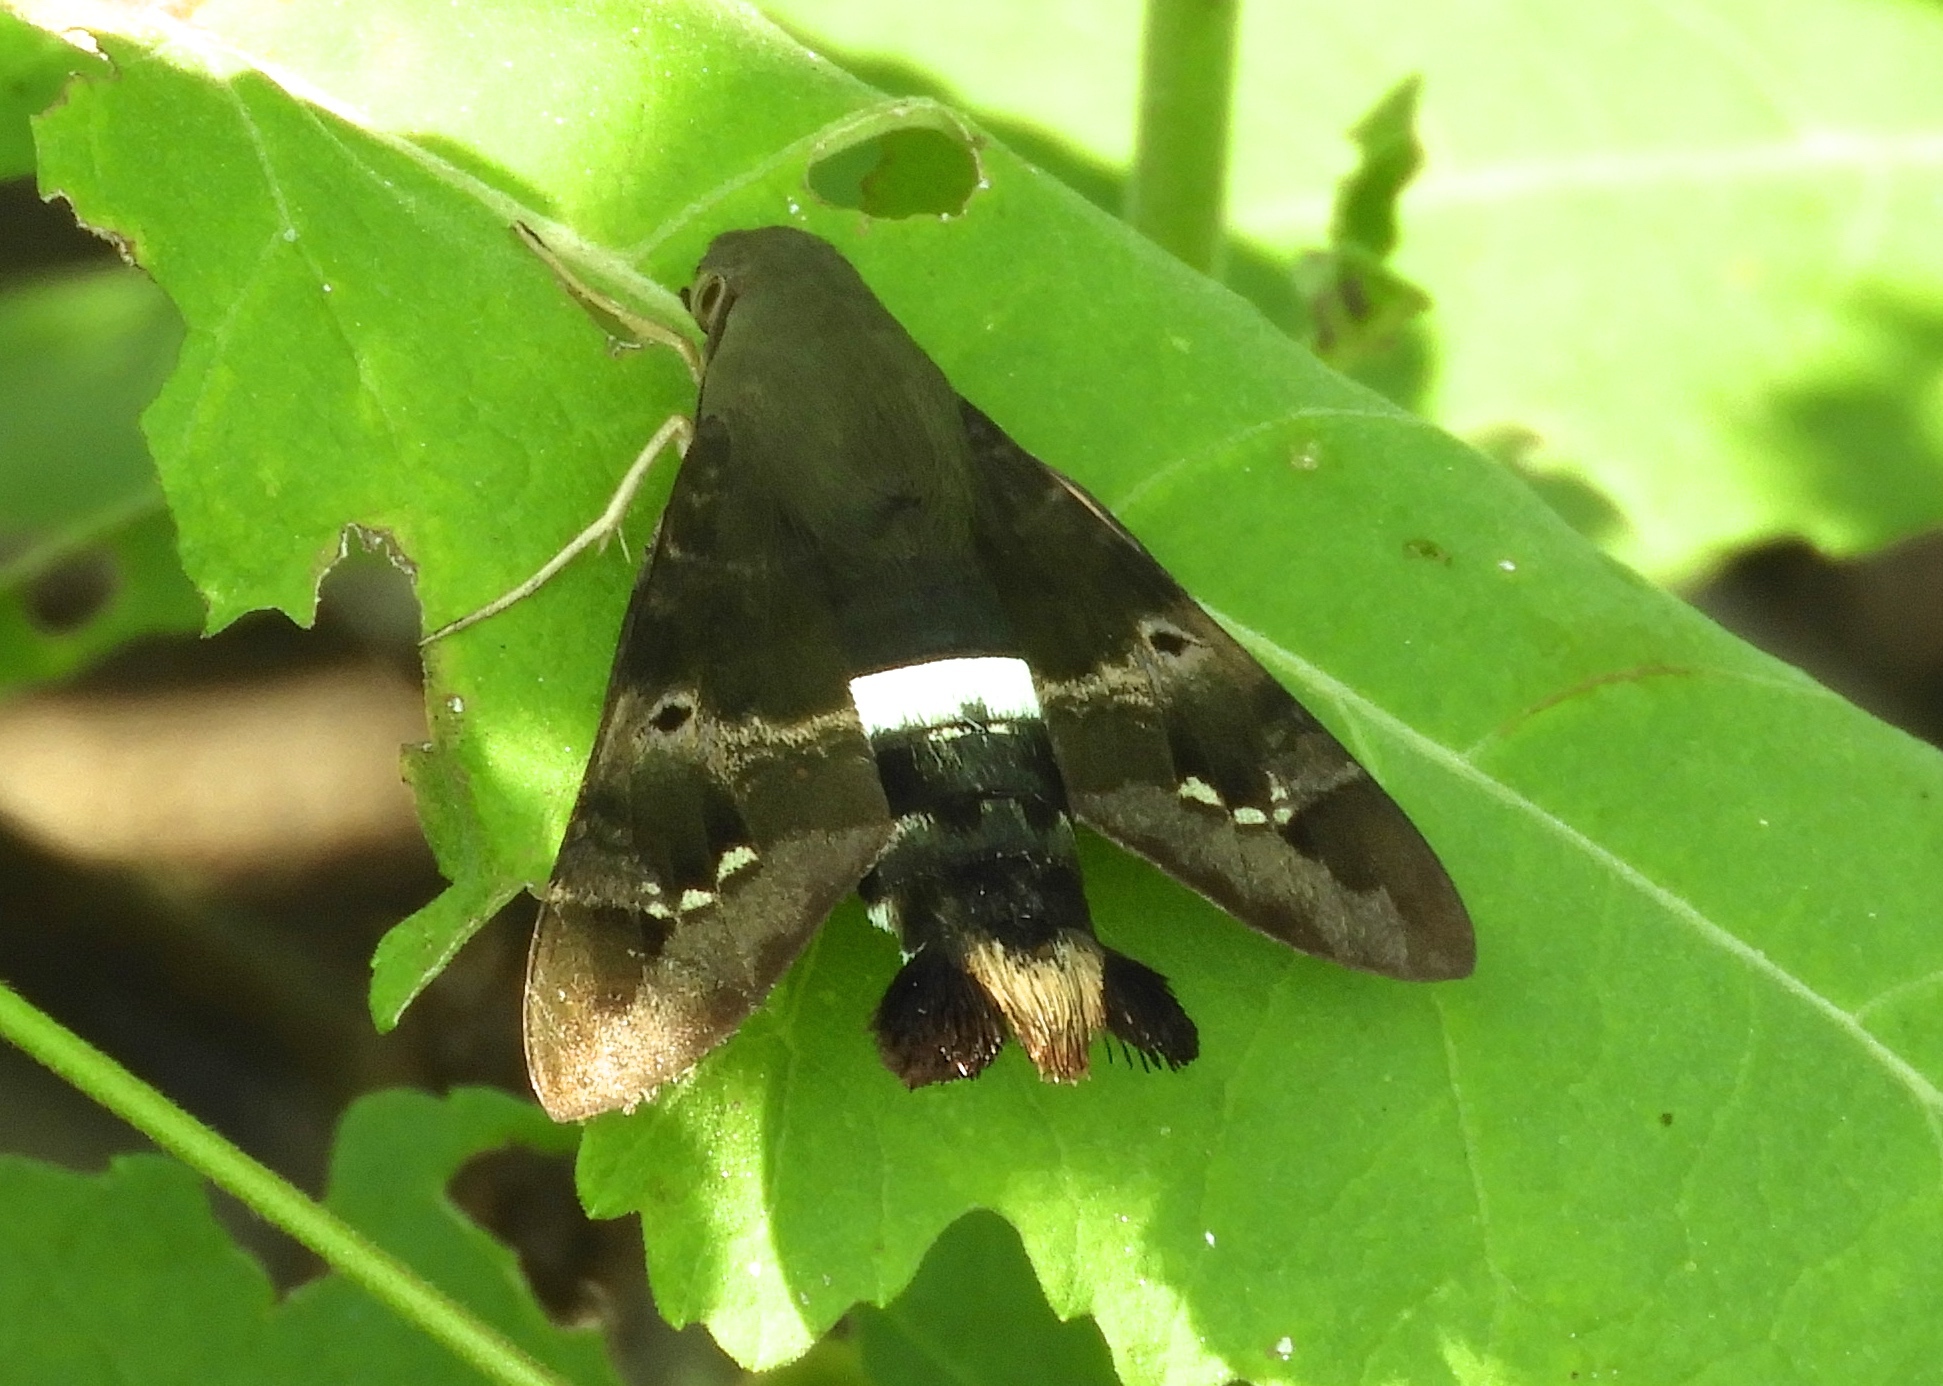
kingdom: Animalia
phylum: Arthropoda
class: Insecta
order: Lepidoptera
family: Sphingidae
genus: Aellopos
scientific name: Aellopos clavipes
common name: Clavipes sphinx
